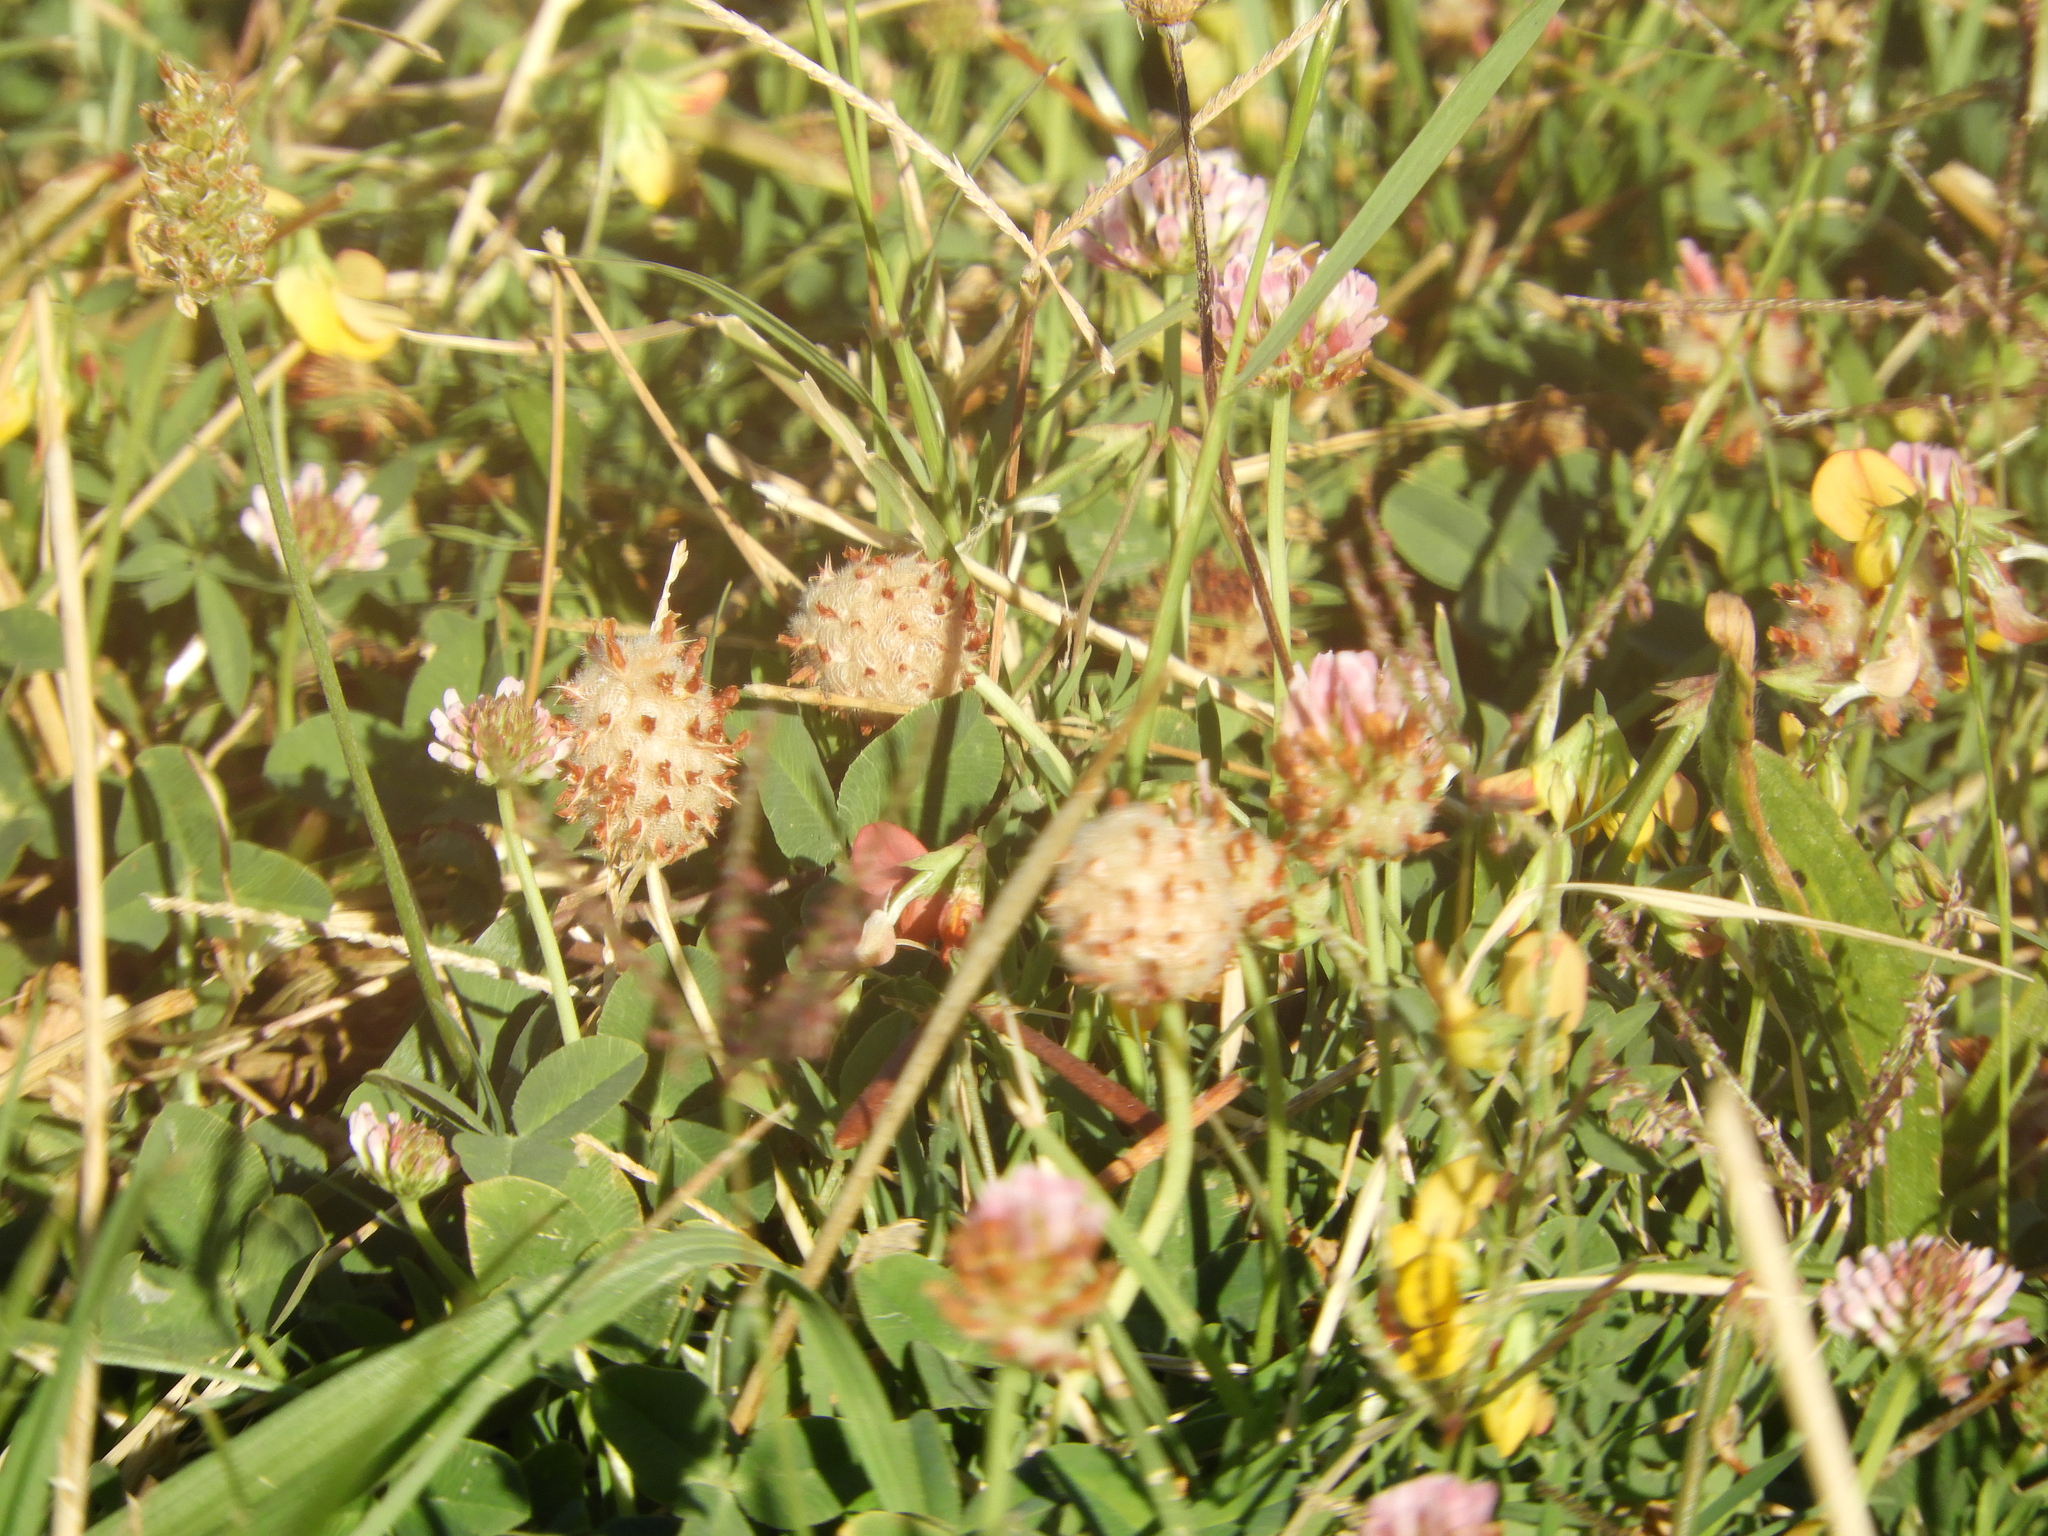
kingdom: Plantae
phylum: Tracheophyta
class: Magnoliopsida
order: Fabales
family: Fabaceae
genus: Trifolium
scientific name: Trifolium fragiferum
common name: Strawberry clover
